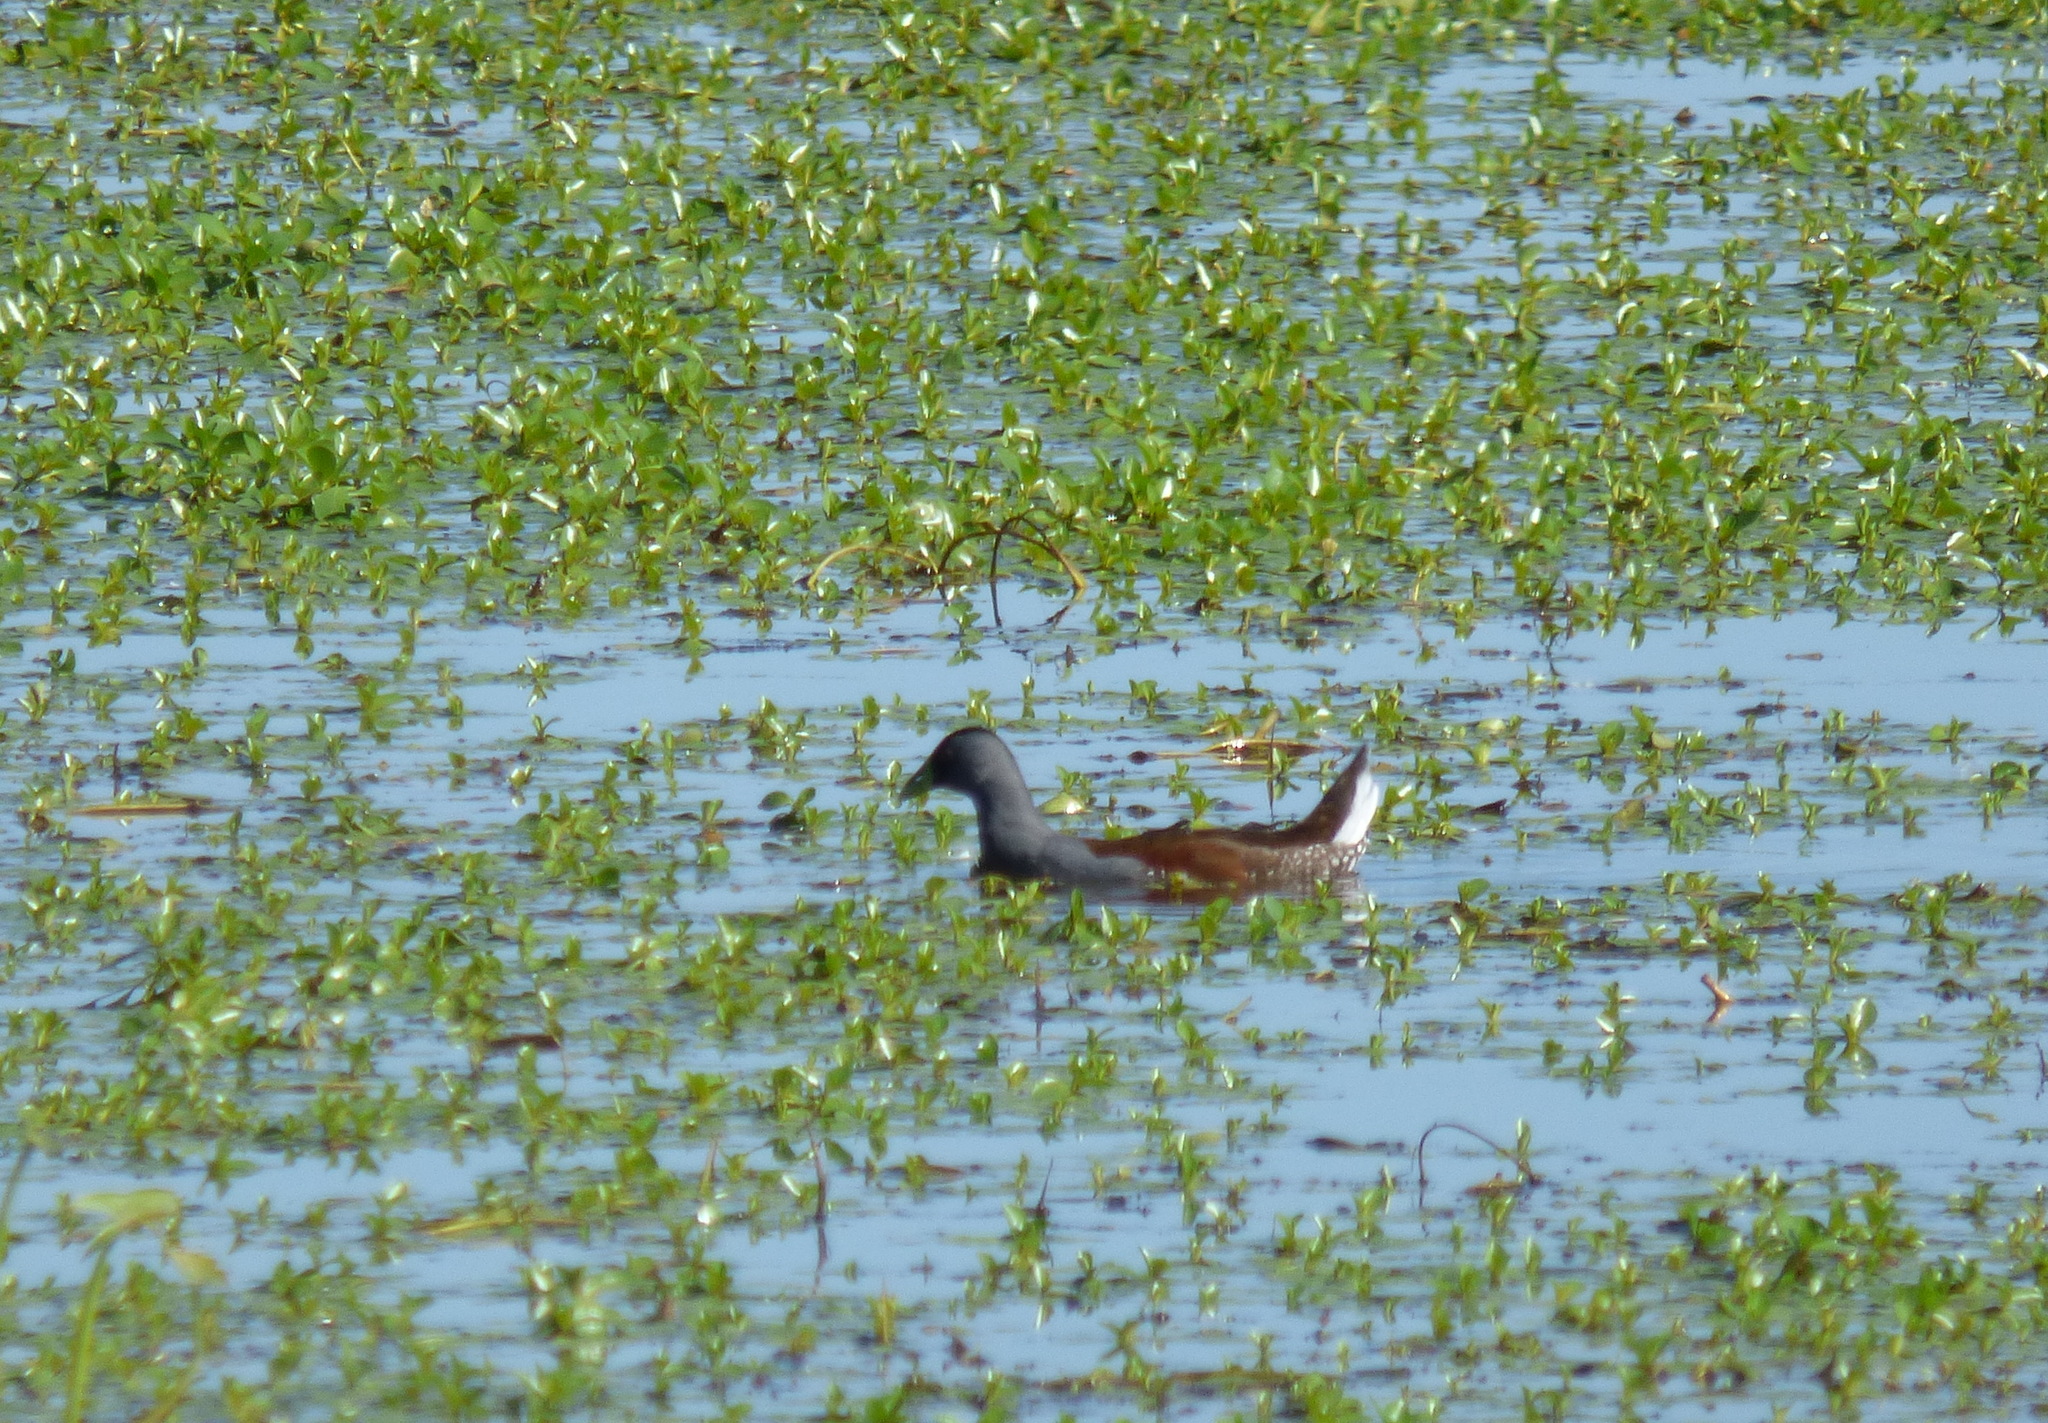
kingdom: Animalia
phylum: Chordata
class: Aves
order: Gruiformes
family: Rallidae
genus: Gallinula
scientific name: Gallinula melanops
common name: Spot-flanked gallinule
